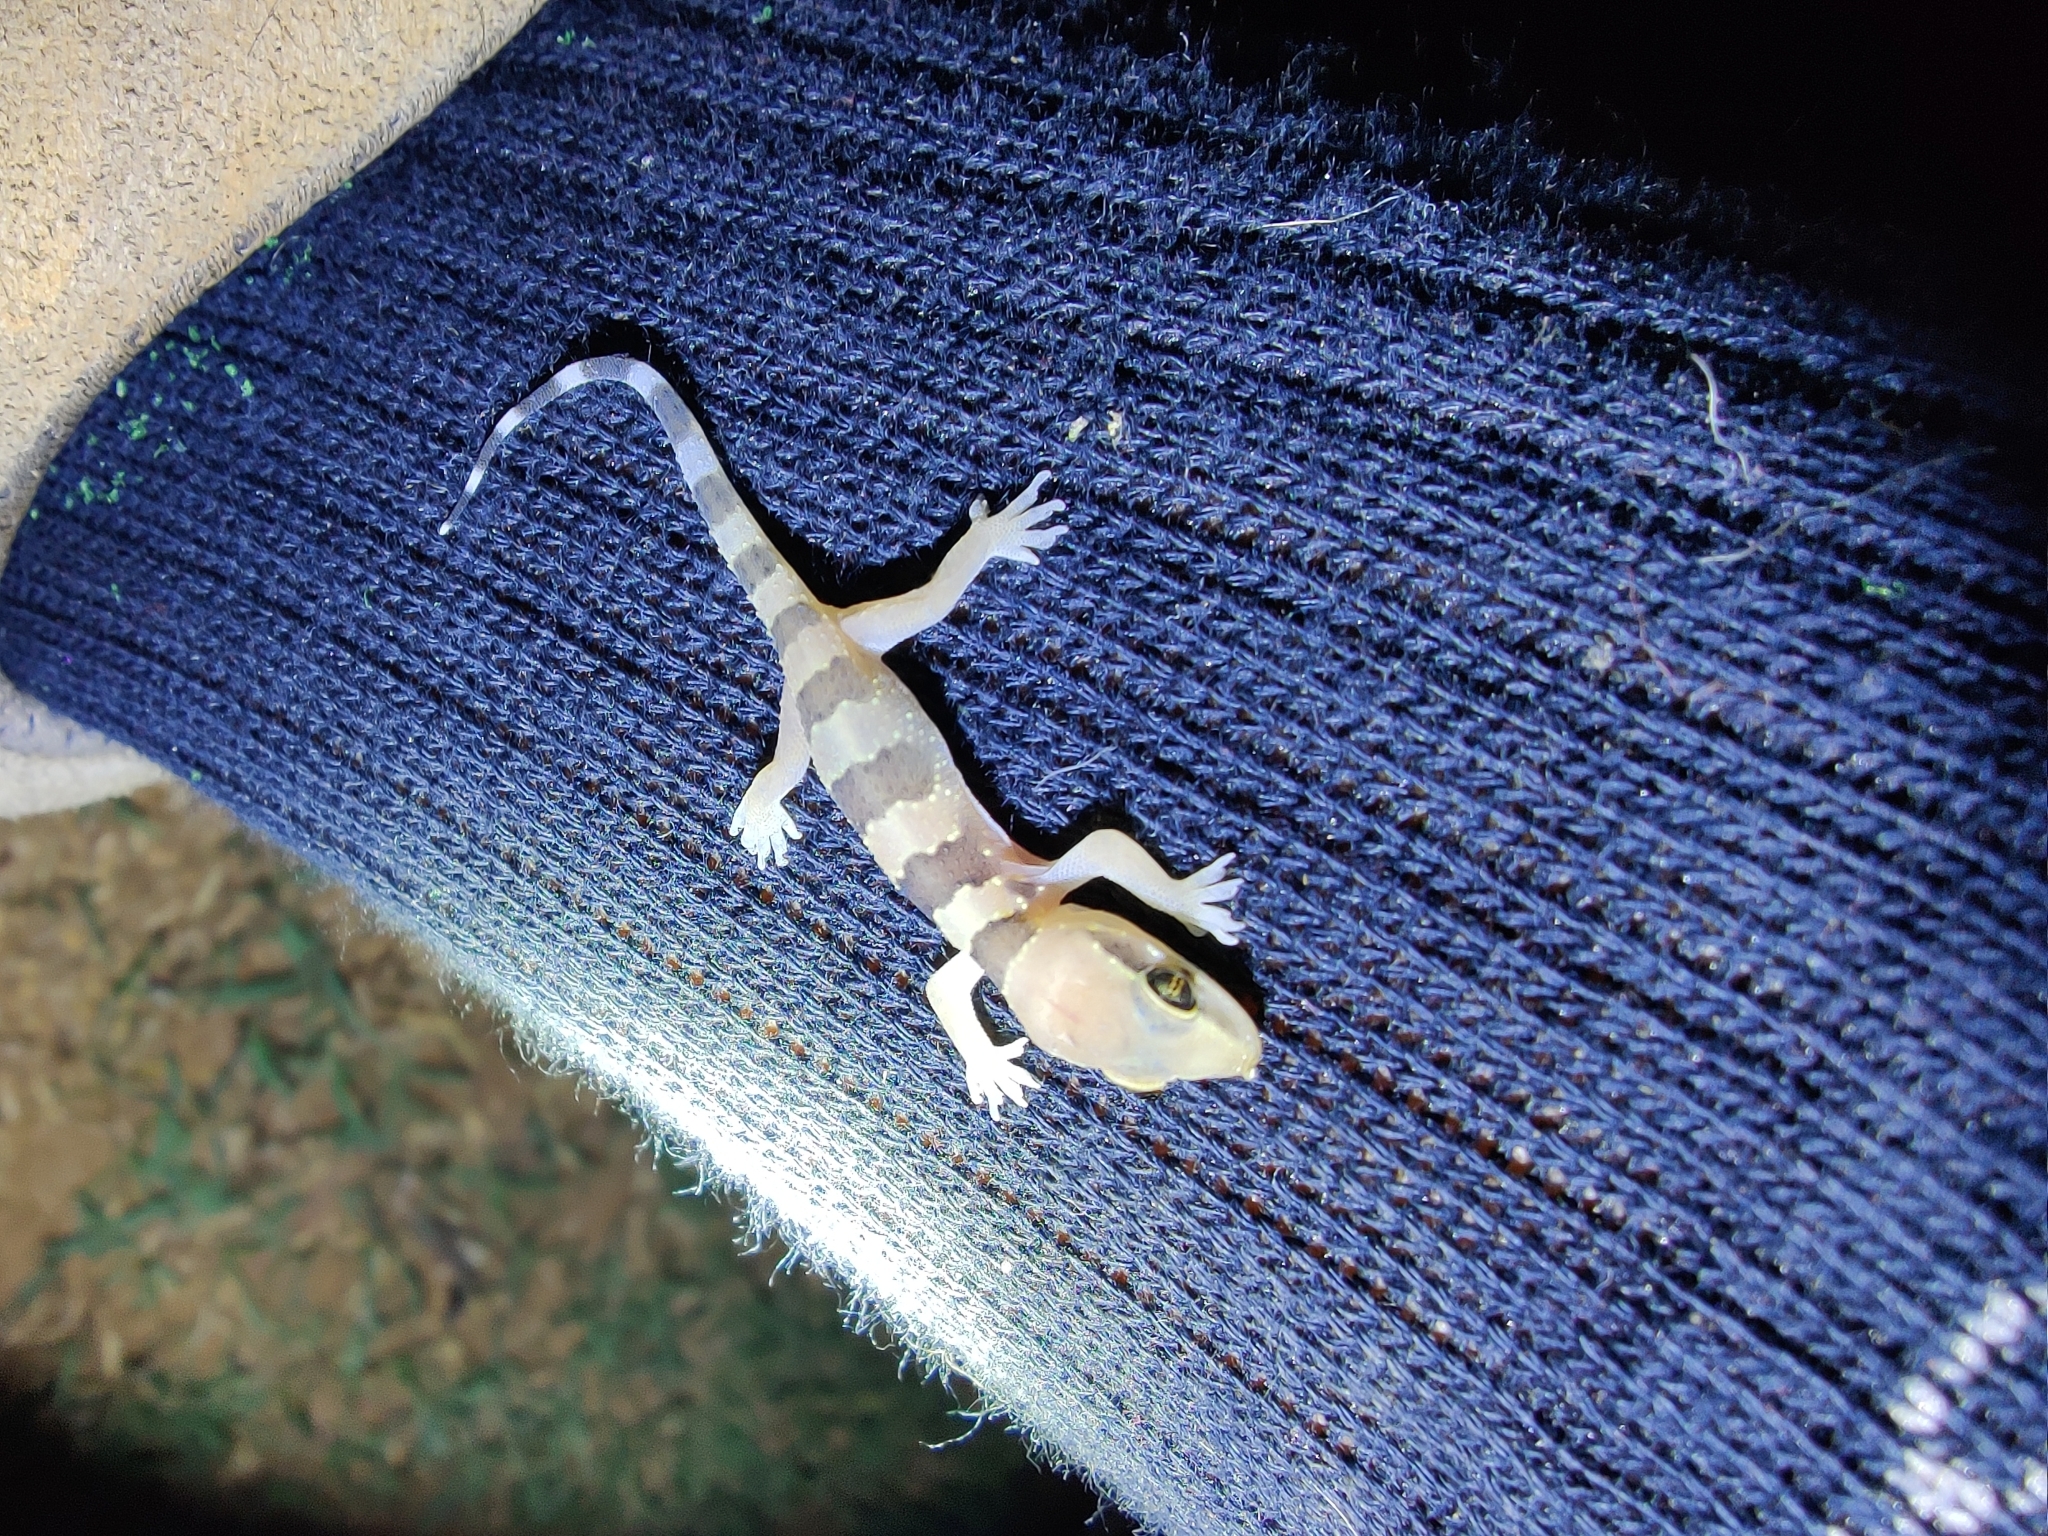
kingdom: Animalia
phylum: Chordata
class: Squamata
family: Gekkonidae
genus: Hemidactylus
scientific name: Hemidactylus whitakeri
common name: Whitaker’s termite hill gecko
